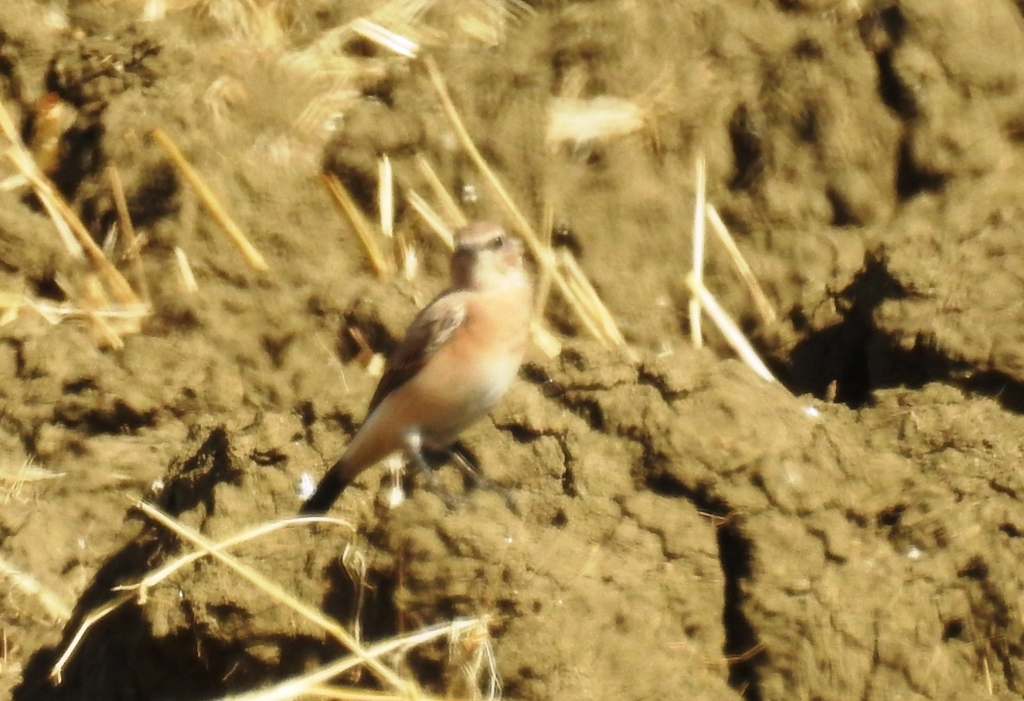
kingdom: Animalia
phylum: Chordata
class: Aves
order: Passeriformes
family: Muscicapidae
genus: Oenanthe
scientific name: Oenanthe oenanthe
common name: Northern wheatear
